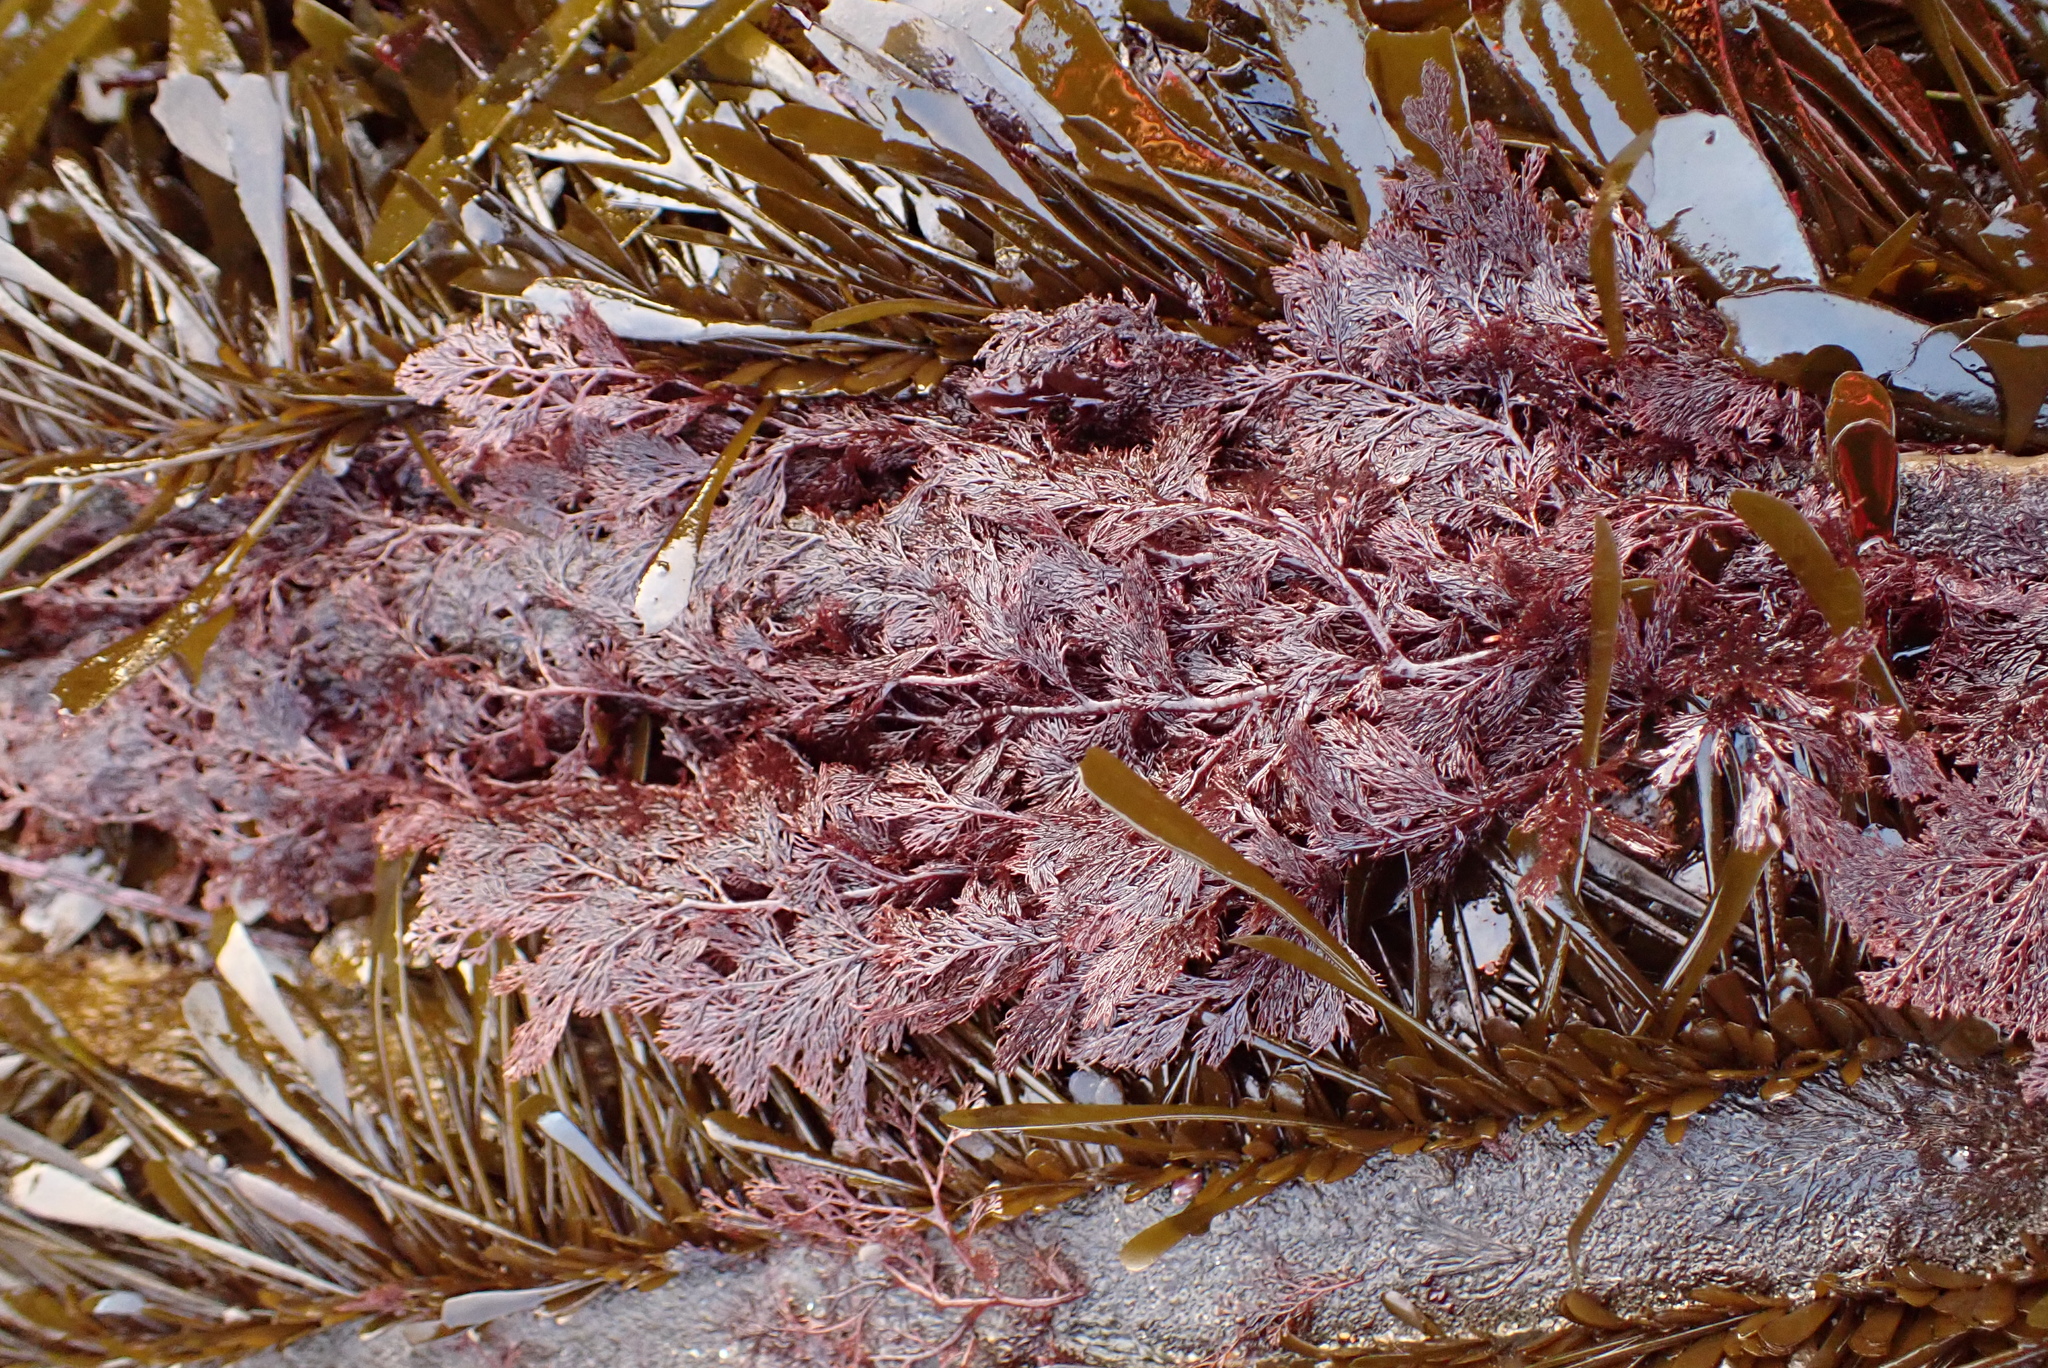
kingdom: Plantae
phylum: Rhodophyta
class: Florideophyceae
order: Ceramiales
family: Ceramiaceae
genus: Microcladia
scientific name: Microcladia coulteri
